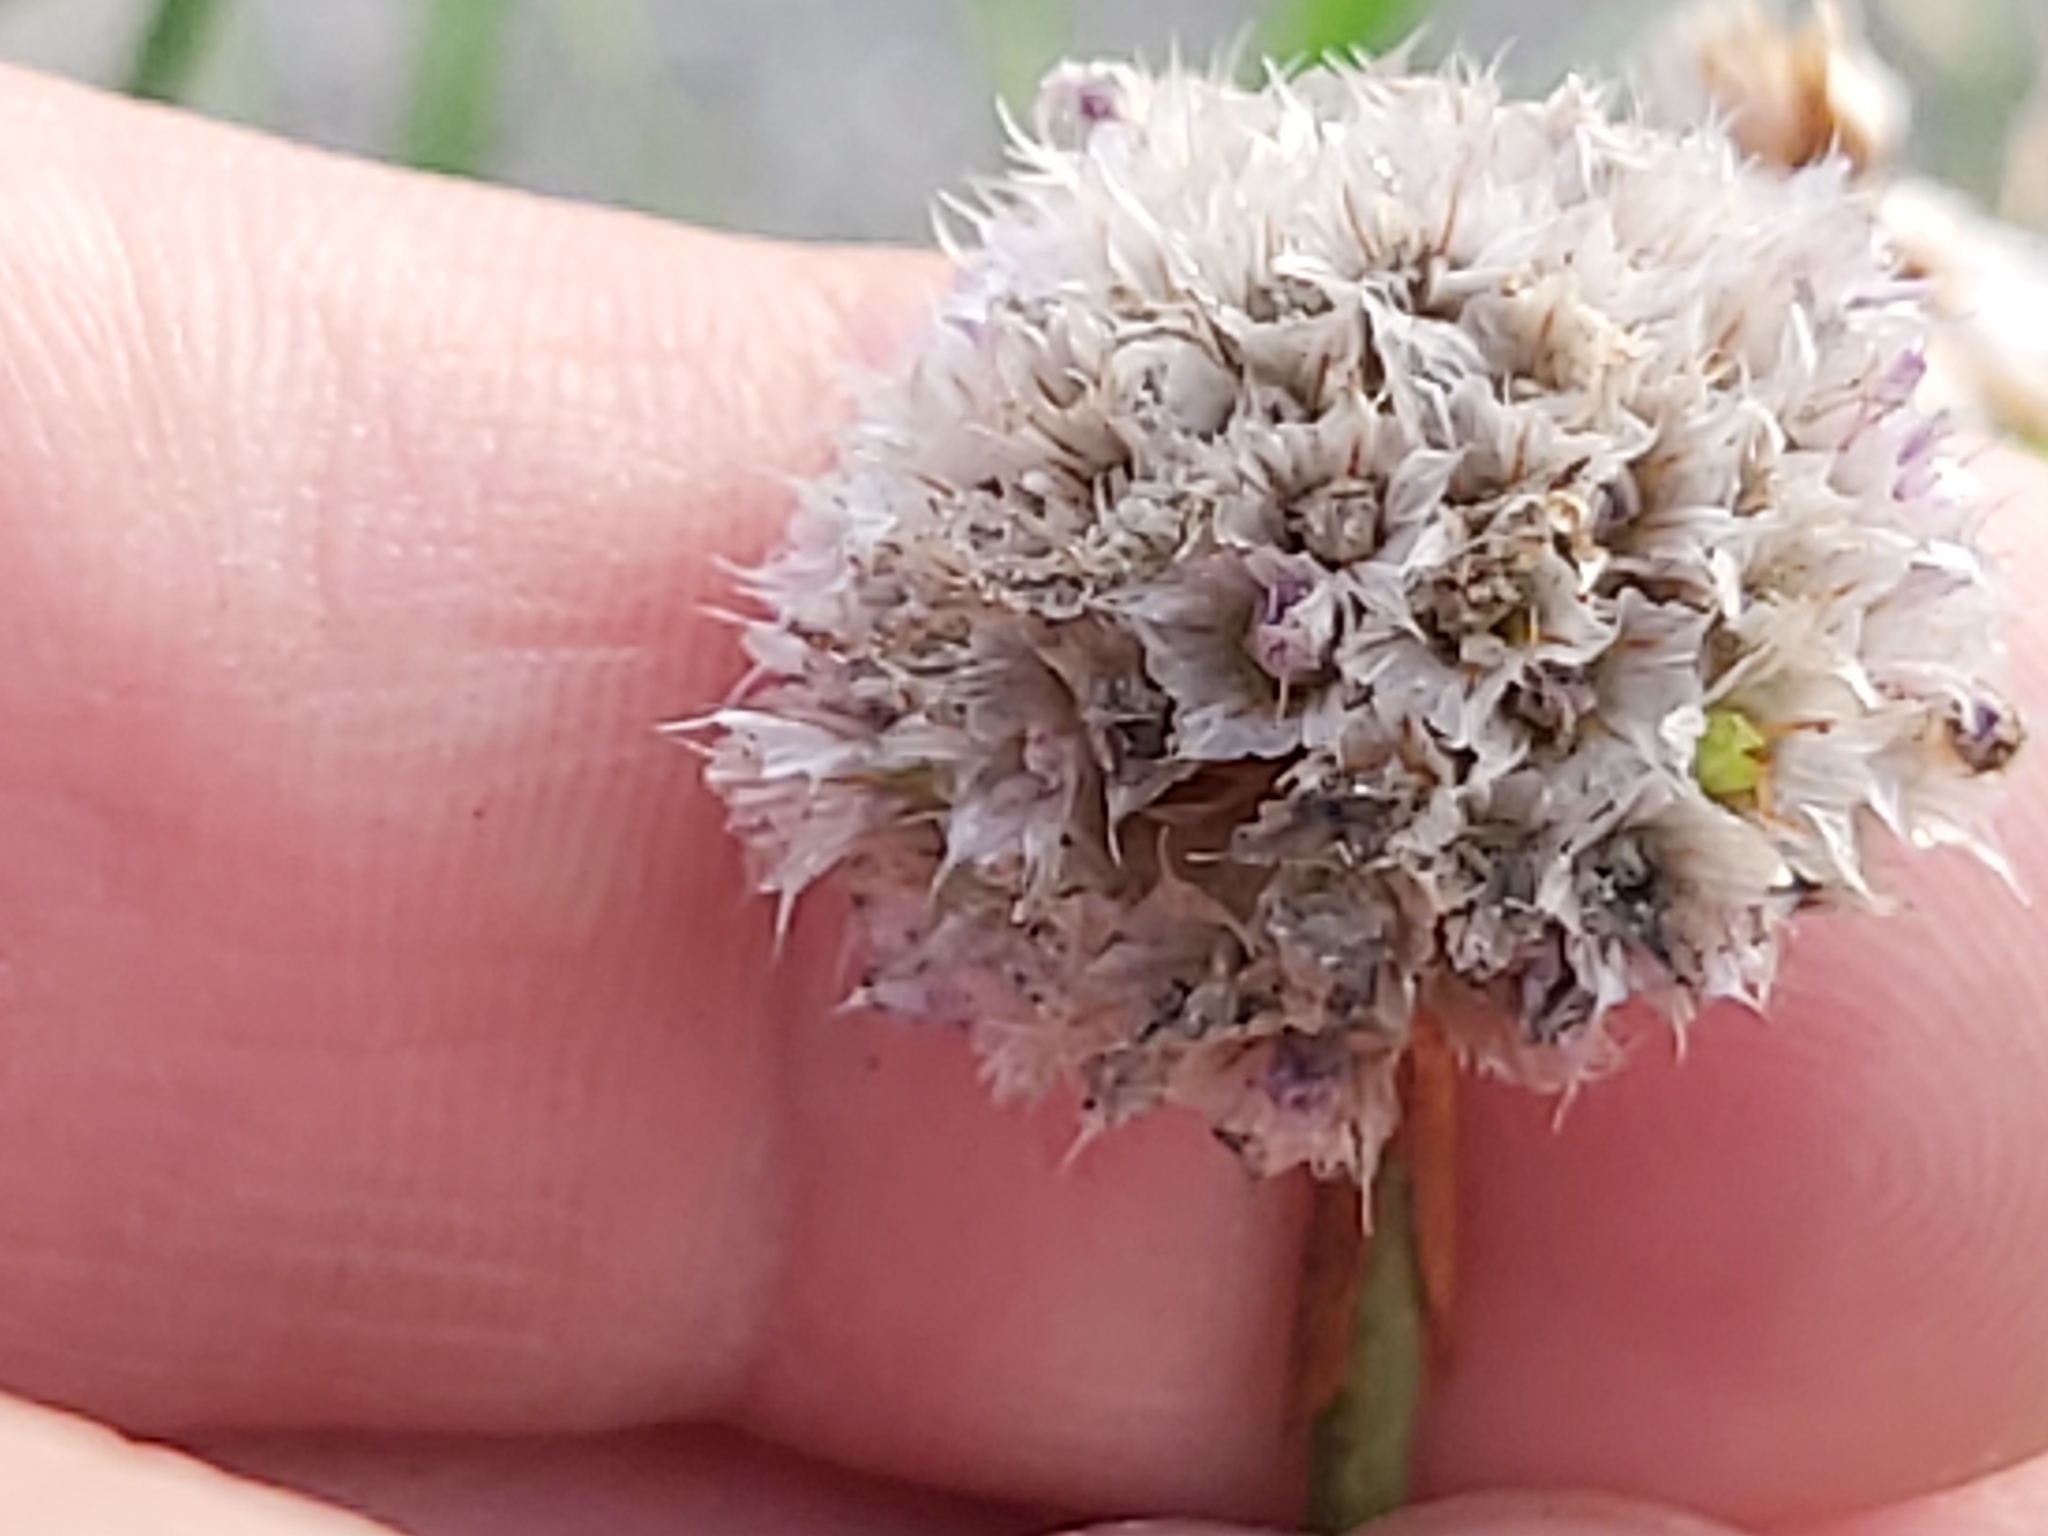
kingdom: Plantae
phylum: Tracheophyta
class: Magnoliopsida
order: Caryophyllales
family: Plumbaginaceae
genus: Armeria
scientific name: Armeria maritima
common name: Thrift
